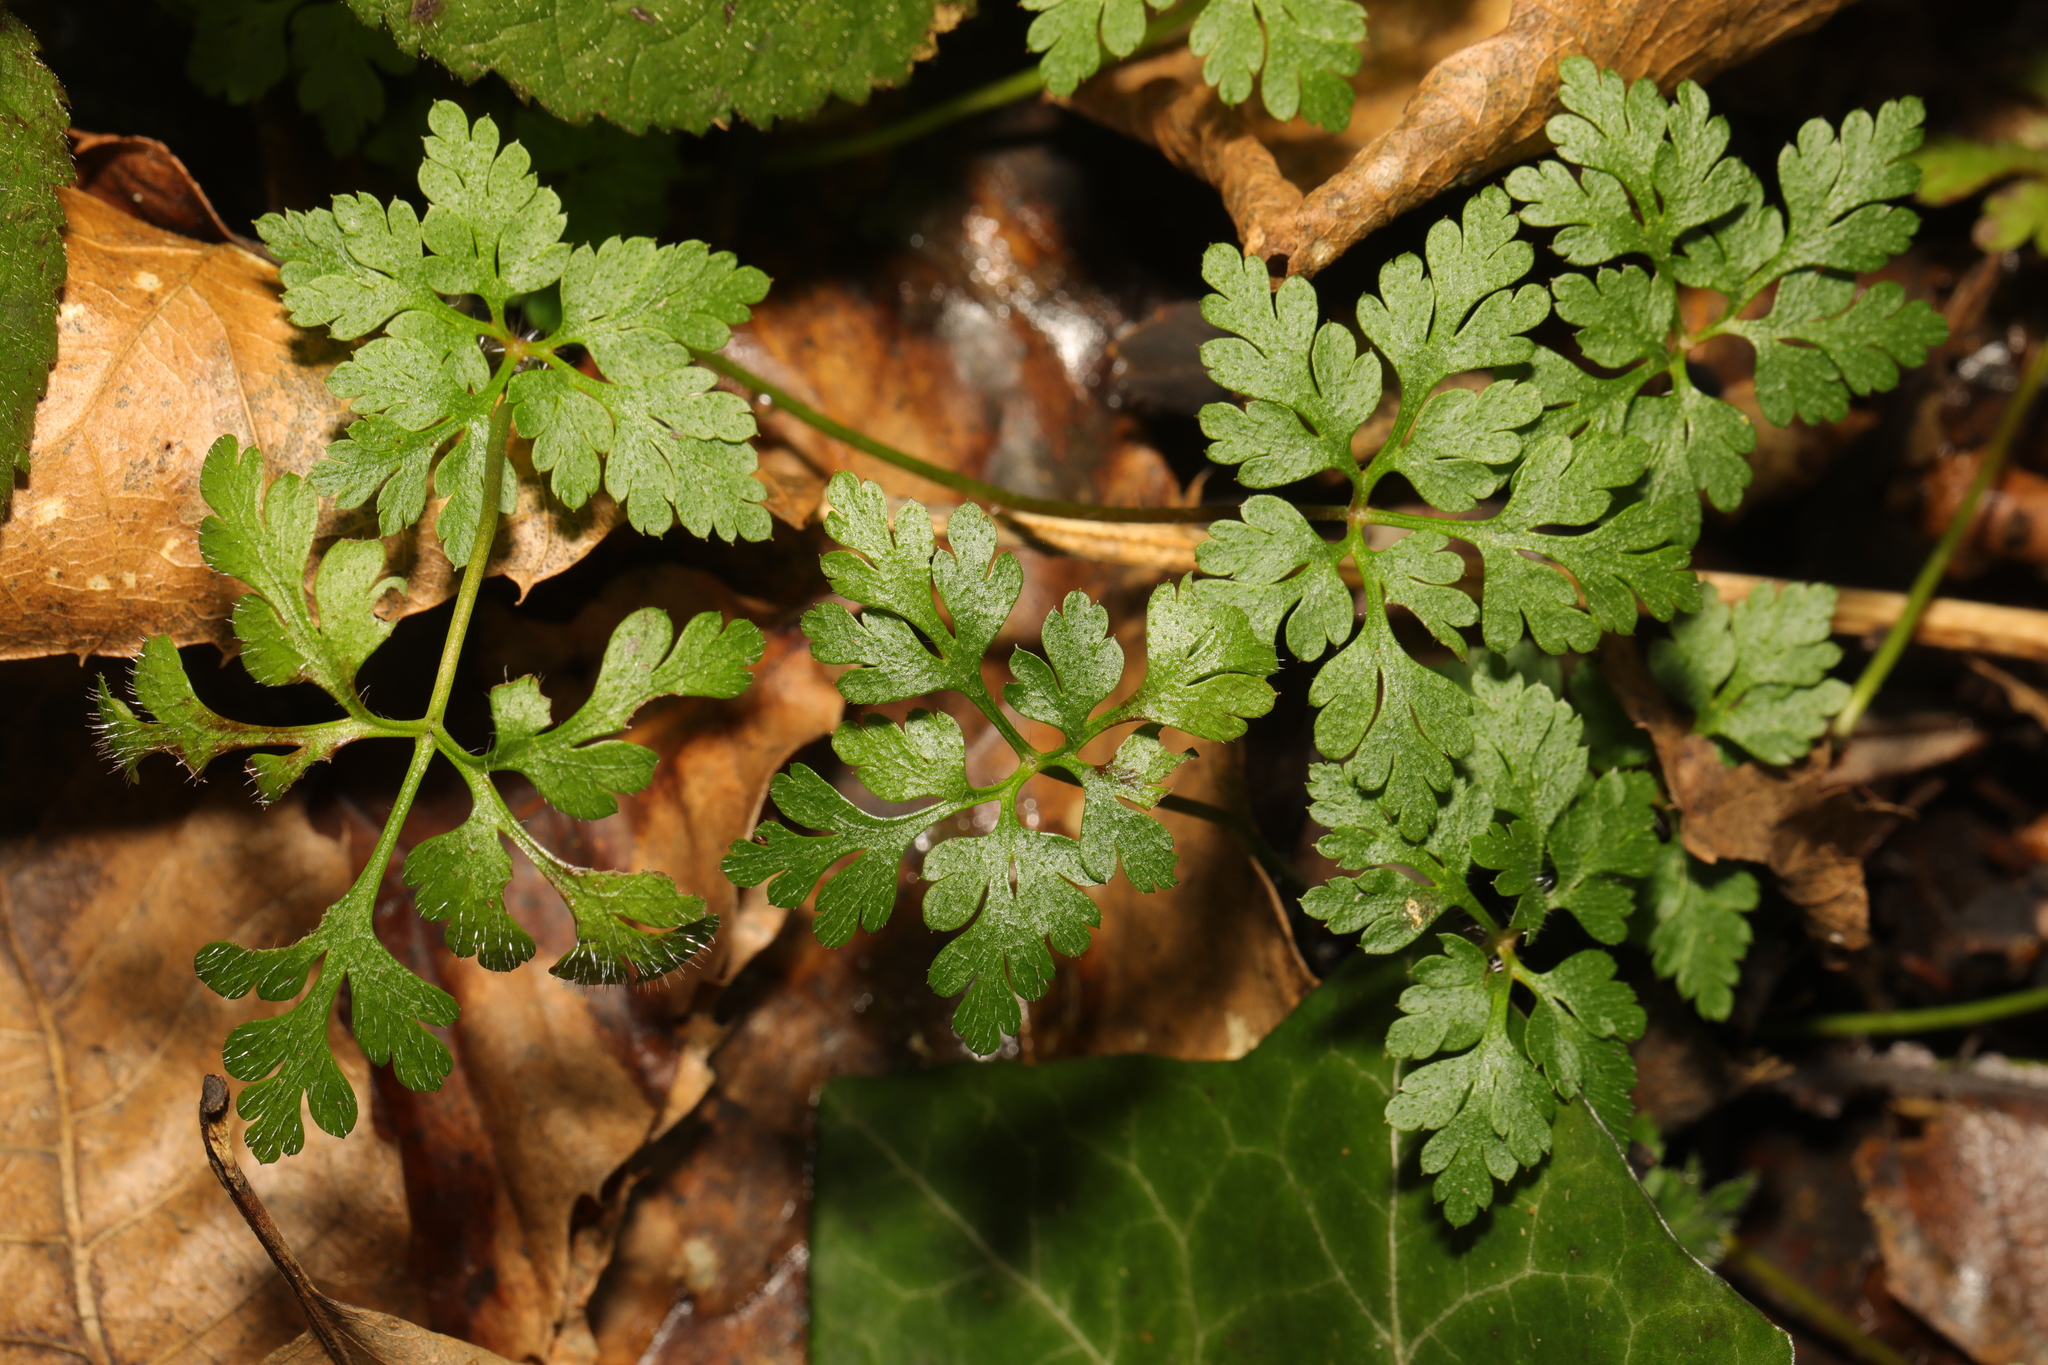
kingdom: Plantae
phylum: Tracheophyta
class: Magnoliopsida
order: Geraniales
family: Geraniaceae
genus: Geranium
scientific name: Geranium robertianum
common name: Herb-robert
